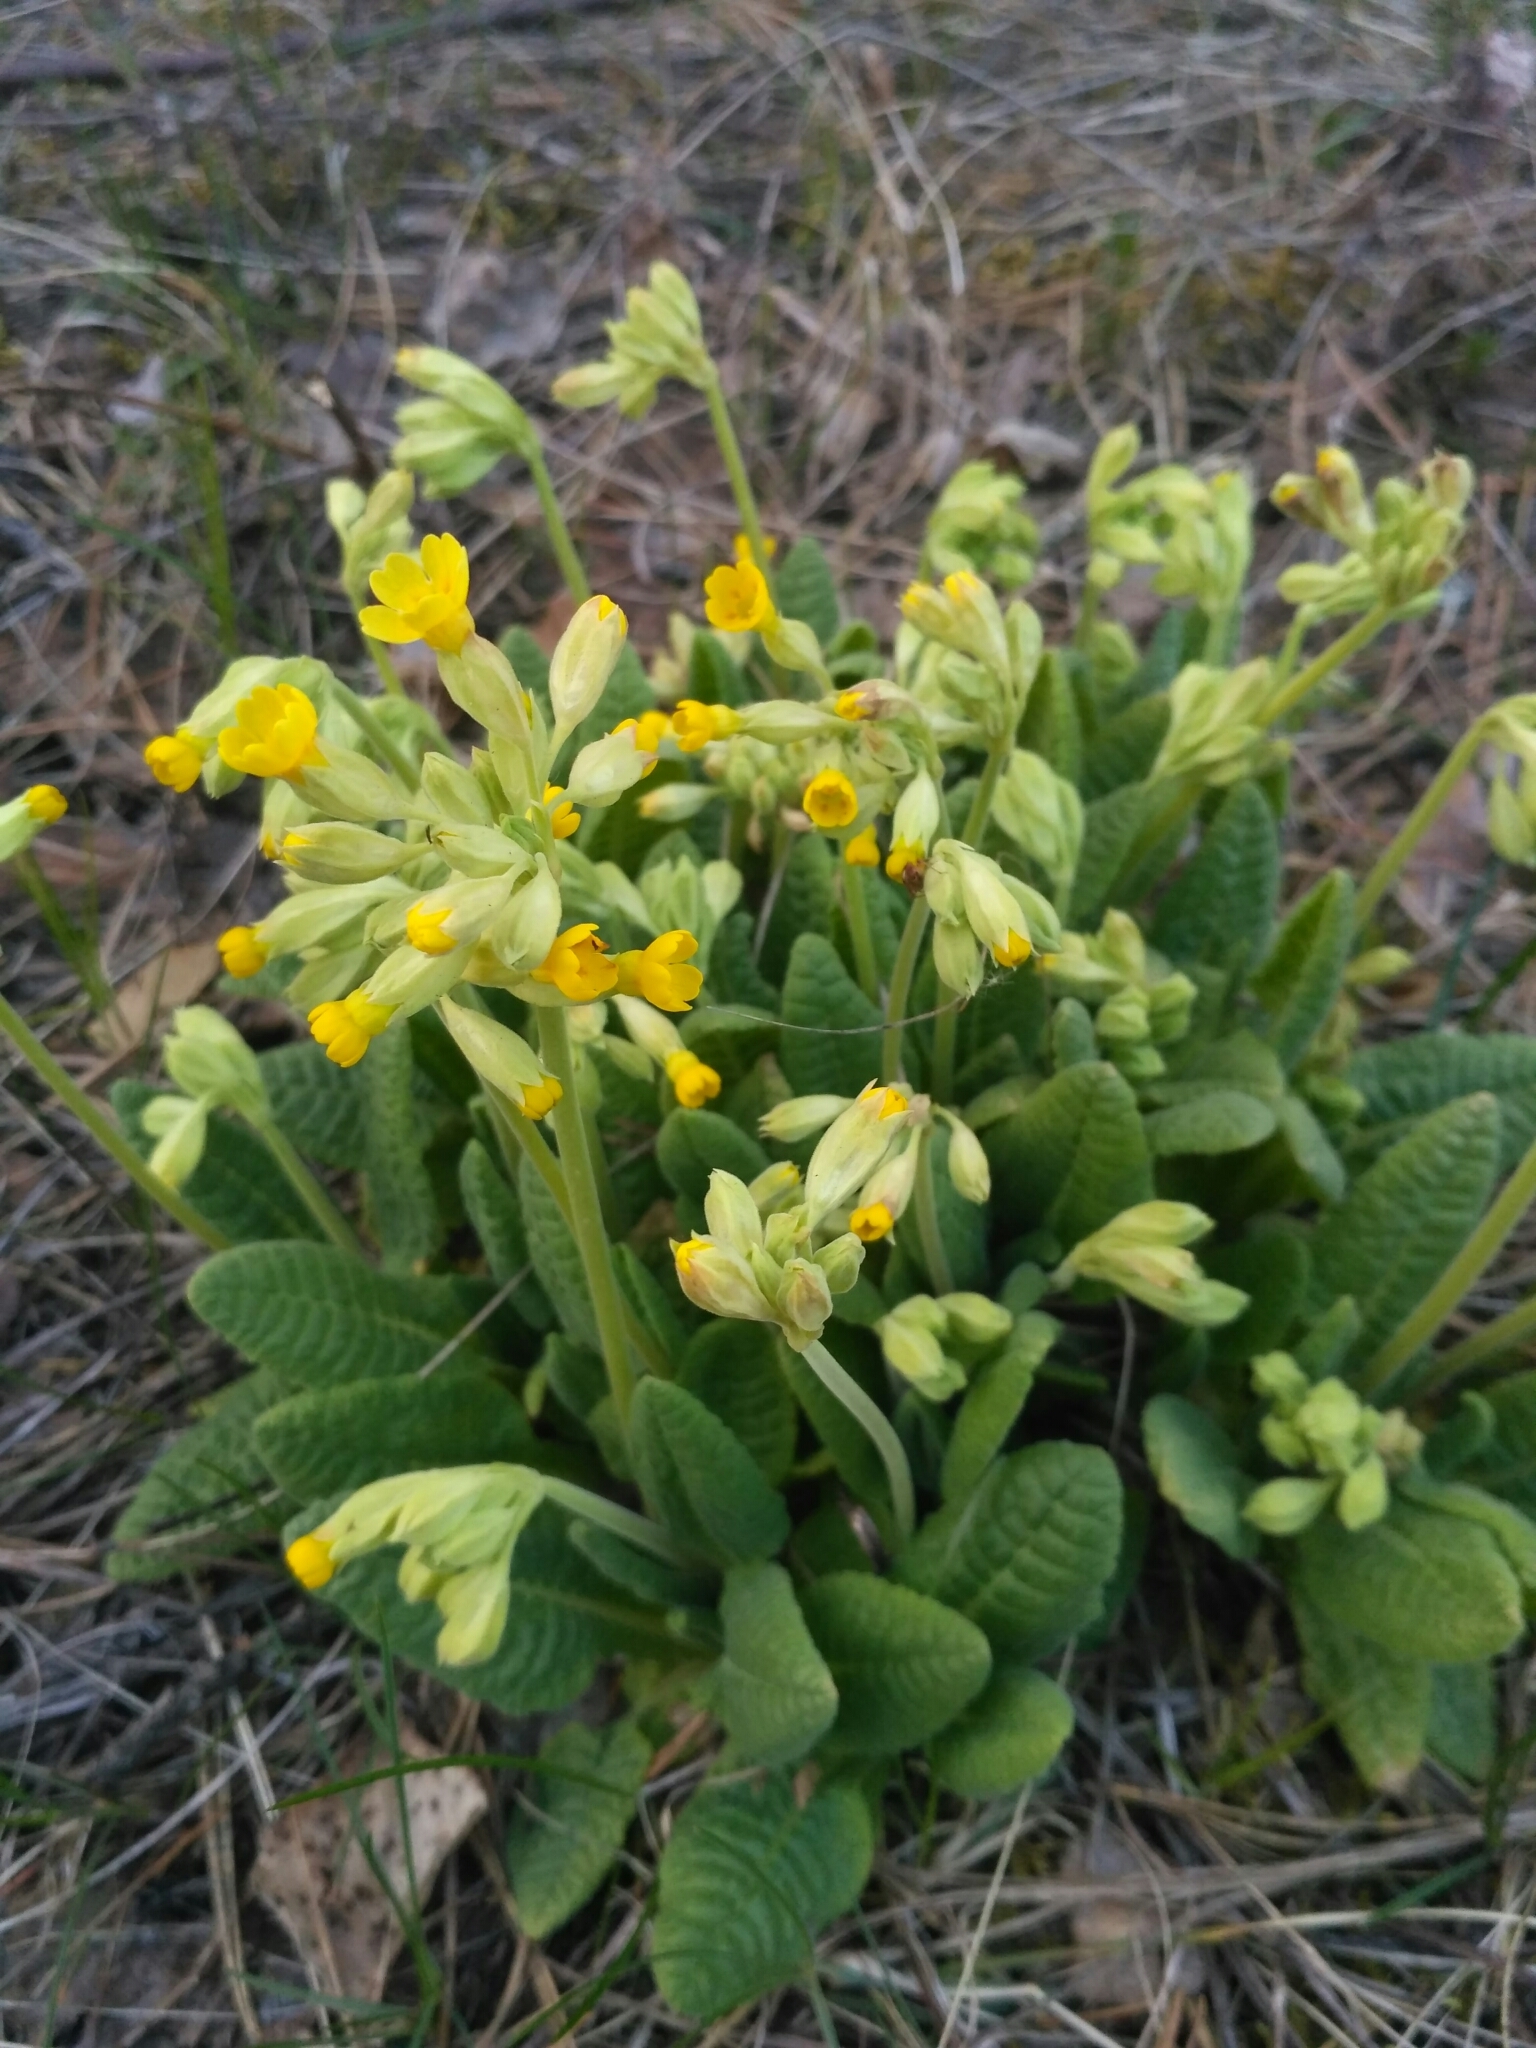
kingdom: Plantae
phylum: Tracheophyta
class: Magnoliopsida
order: Ericales
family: Primulaceae
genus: Primula
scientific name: Primula veris
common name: Cowslip
